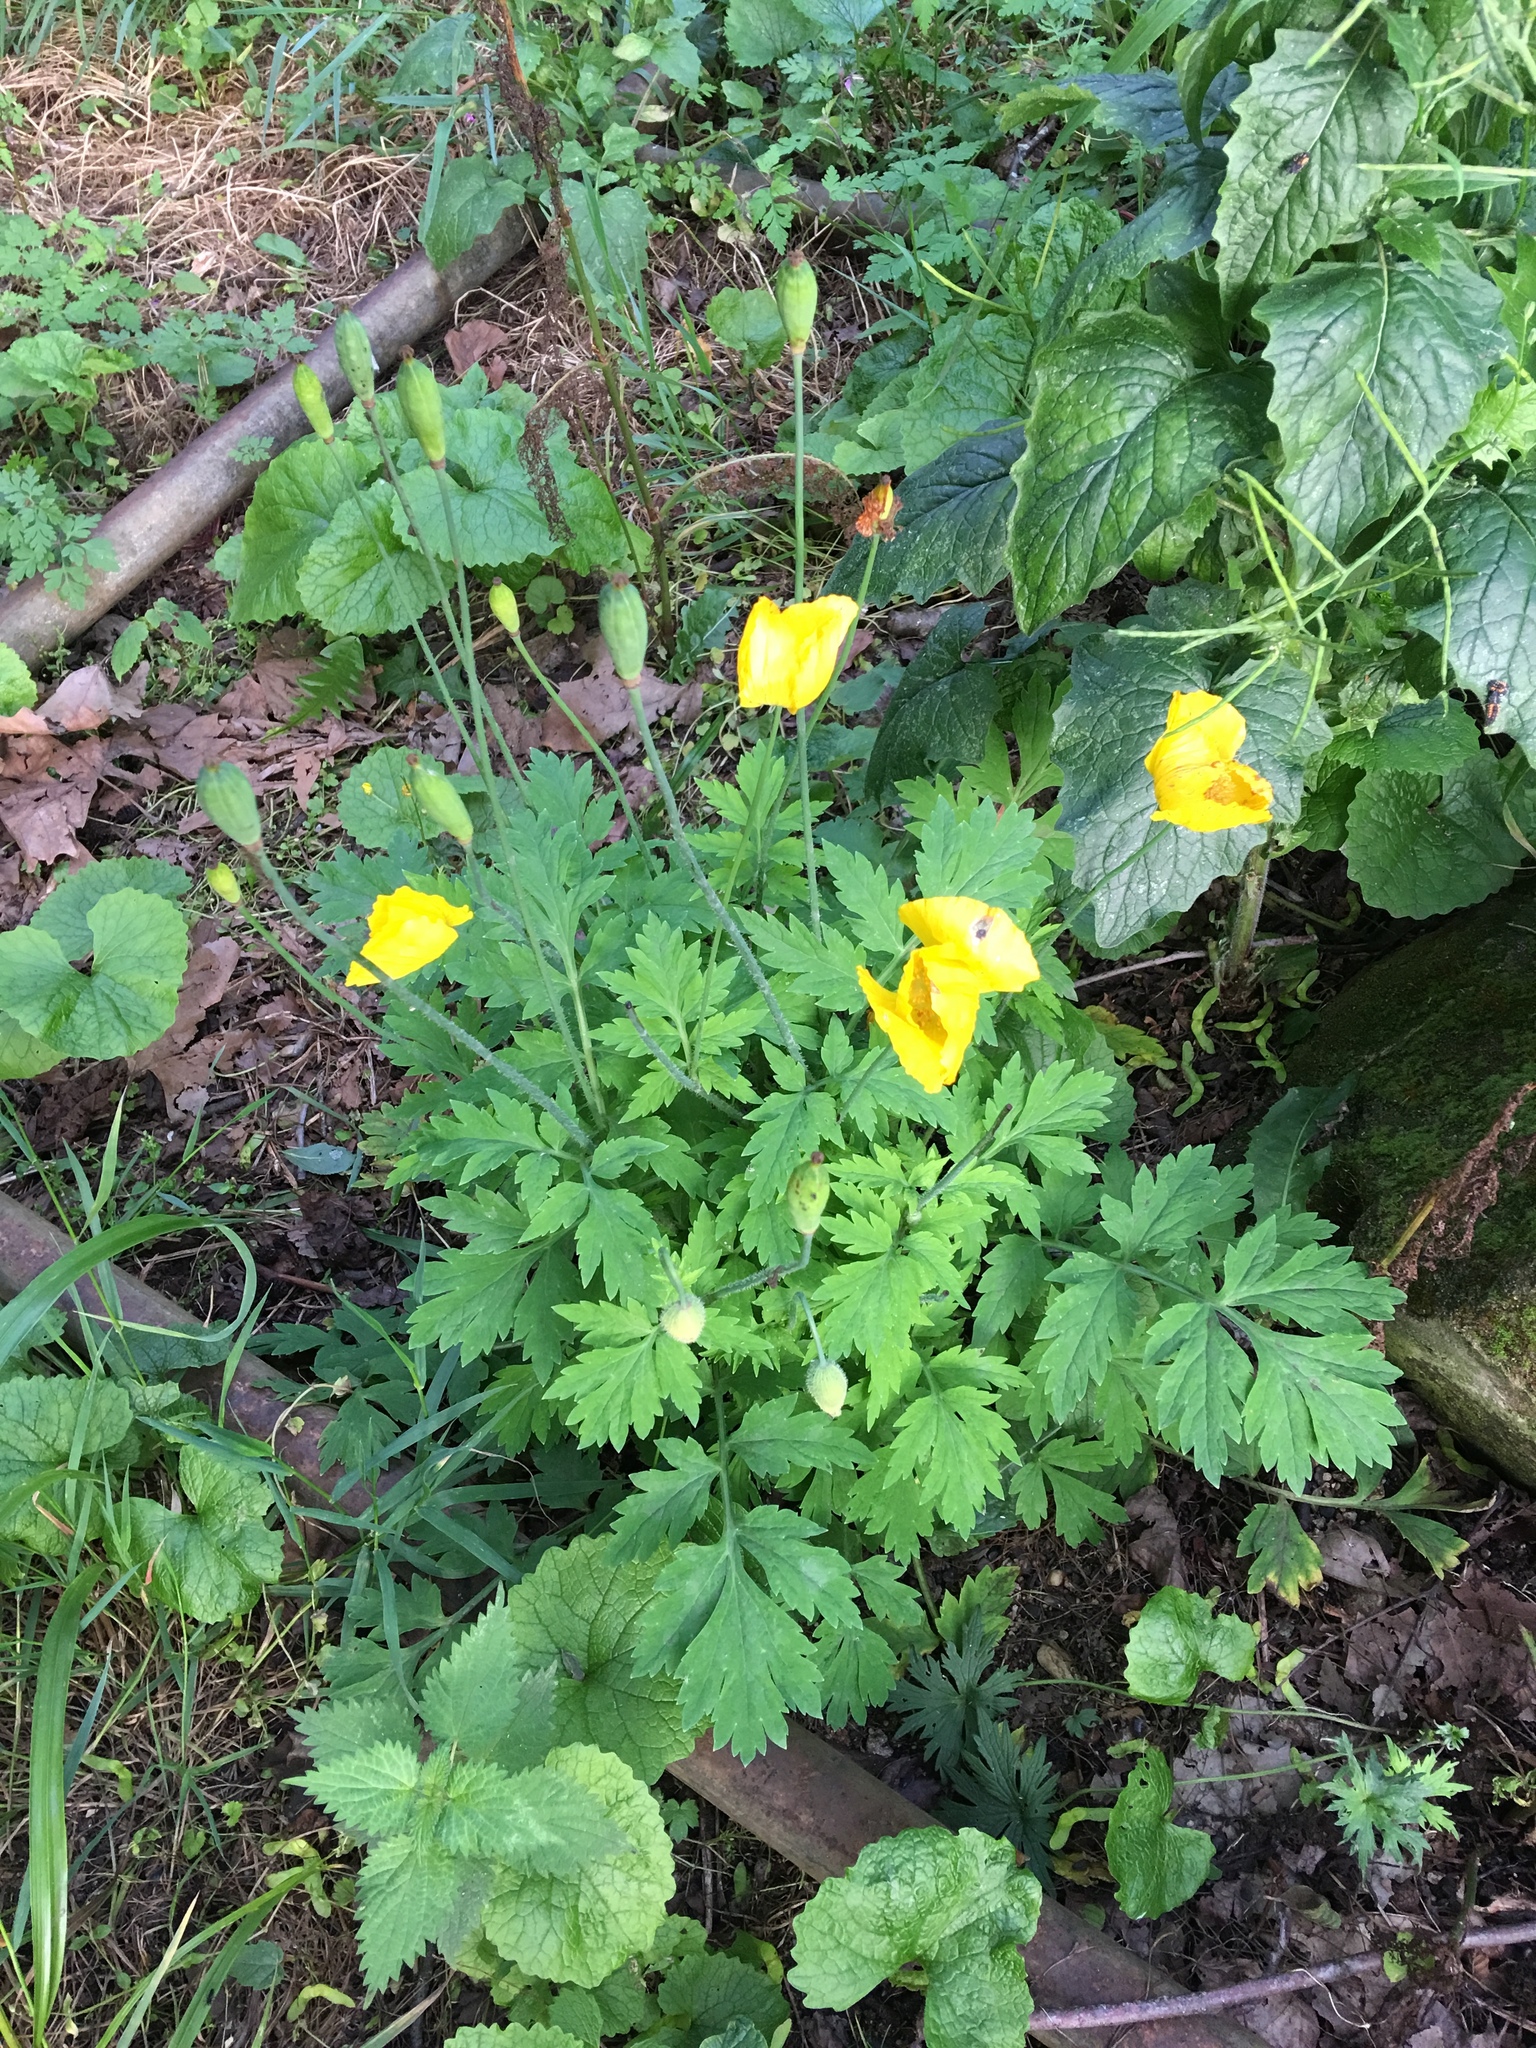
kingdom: Plantae
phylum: Tracheophyta
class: Magnoliopsida
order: Ranunculales
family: Papaveraceae
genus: Papaver
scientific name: Papaver cambricum
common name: Poppy
